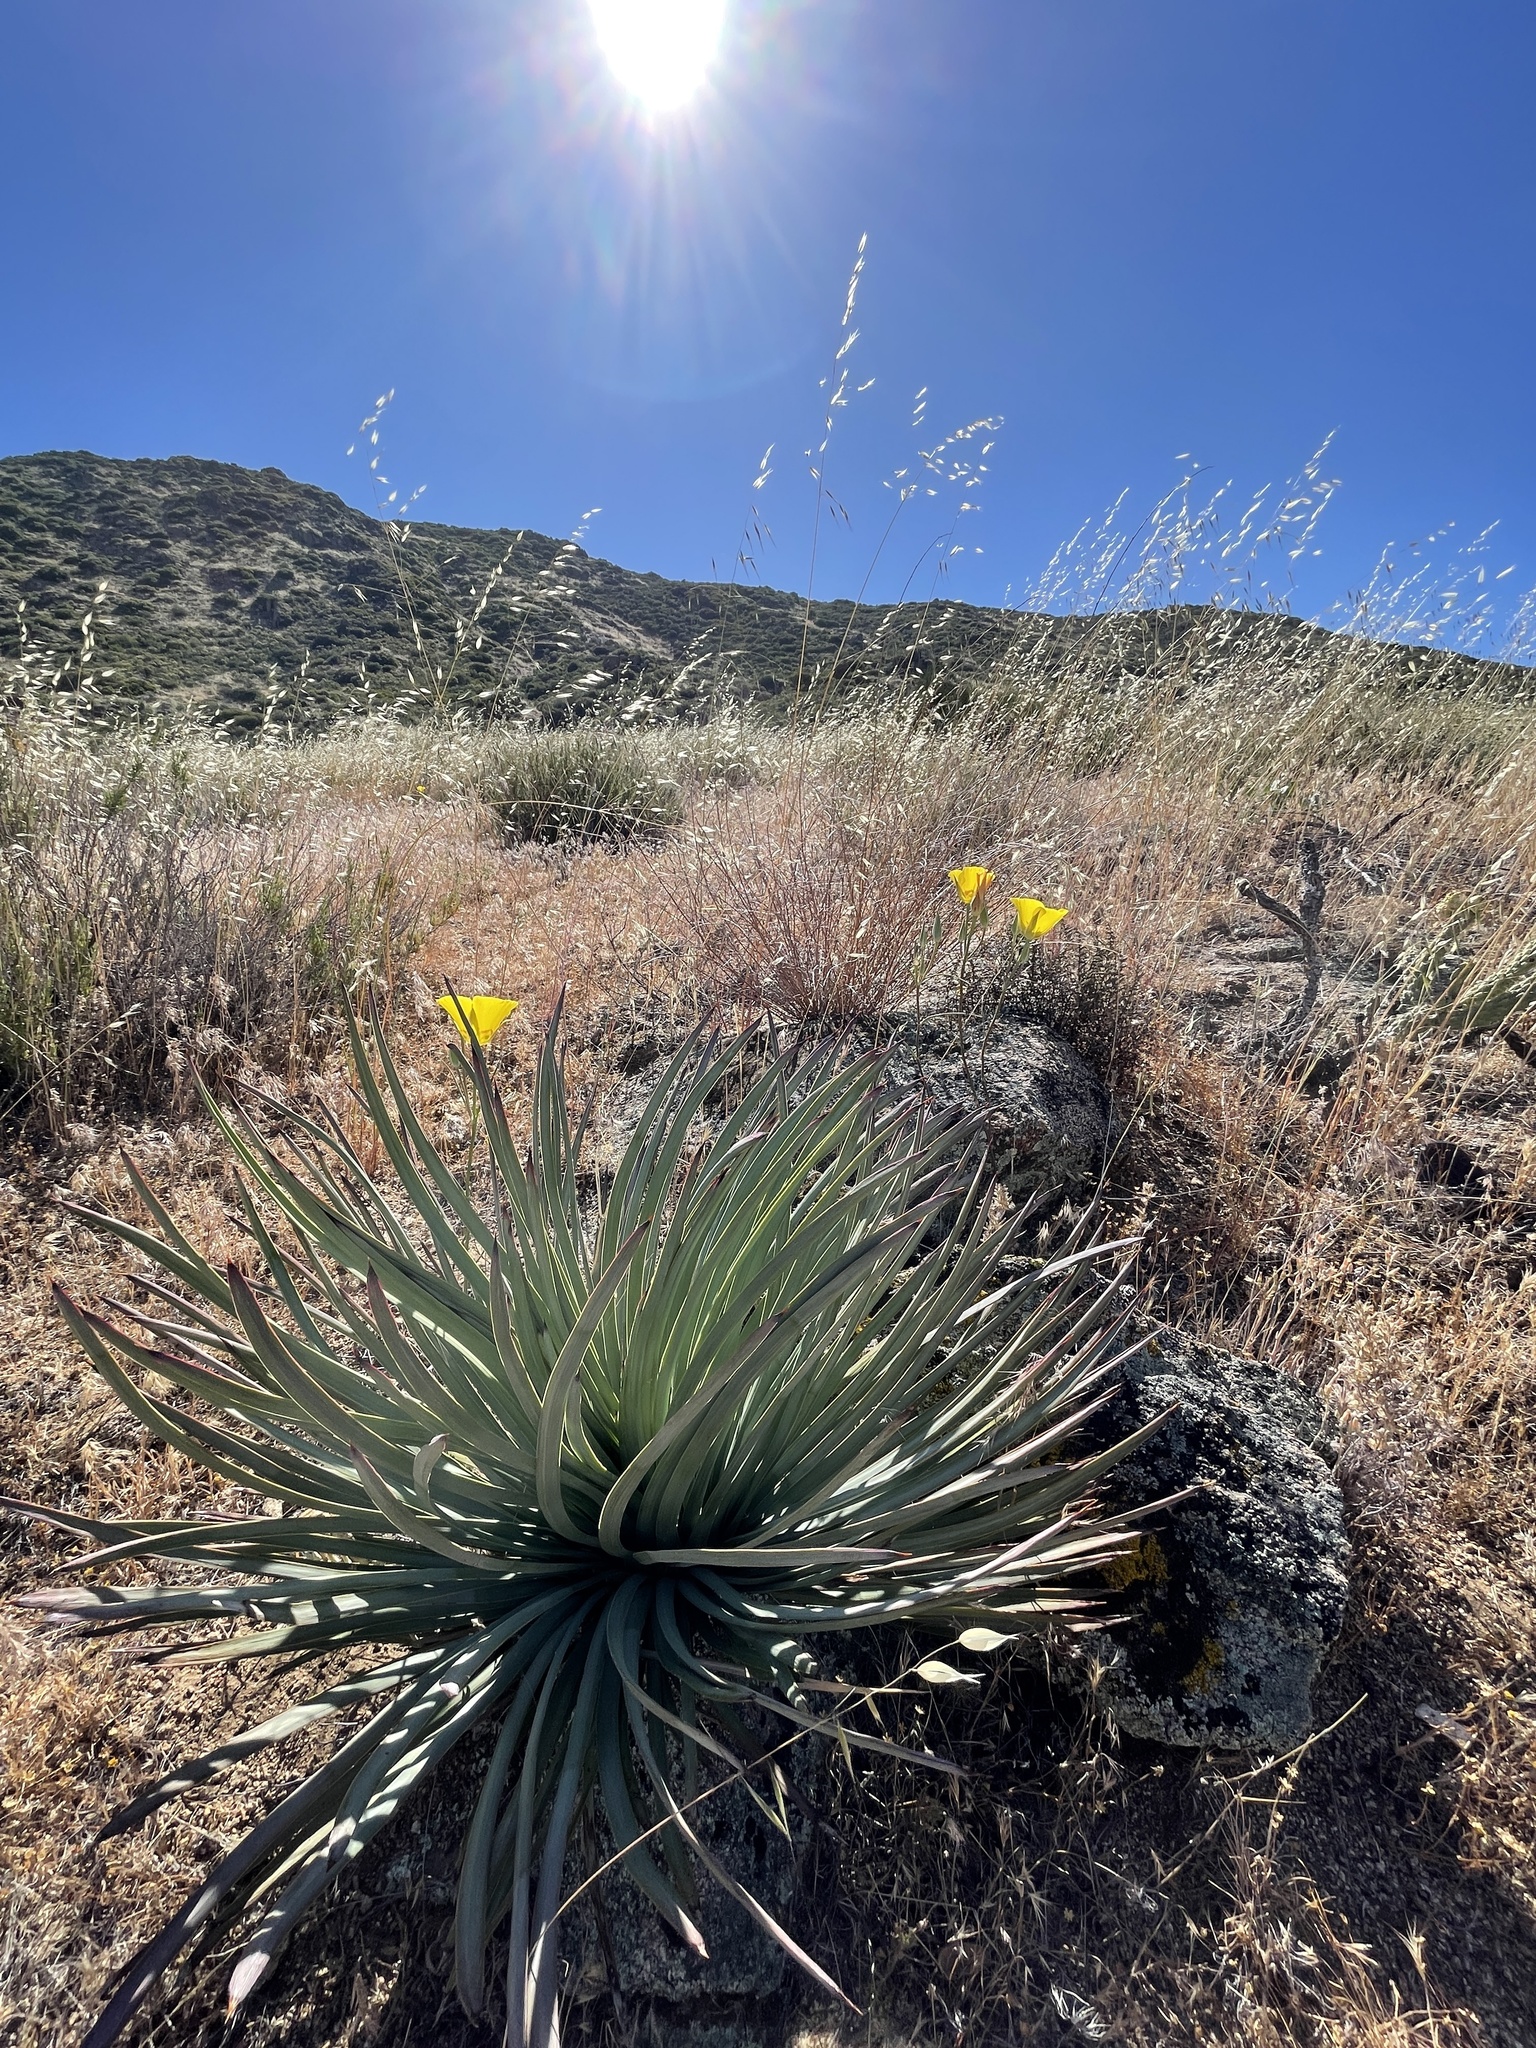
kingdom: Plantae
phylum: Tracheophyta
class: Liliopsida
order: Liliales
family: Liliaceae
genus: Calochortus
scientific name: Calochortus concolor
